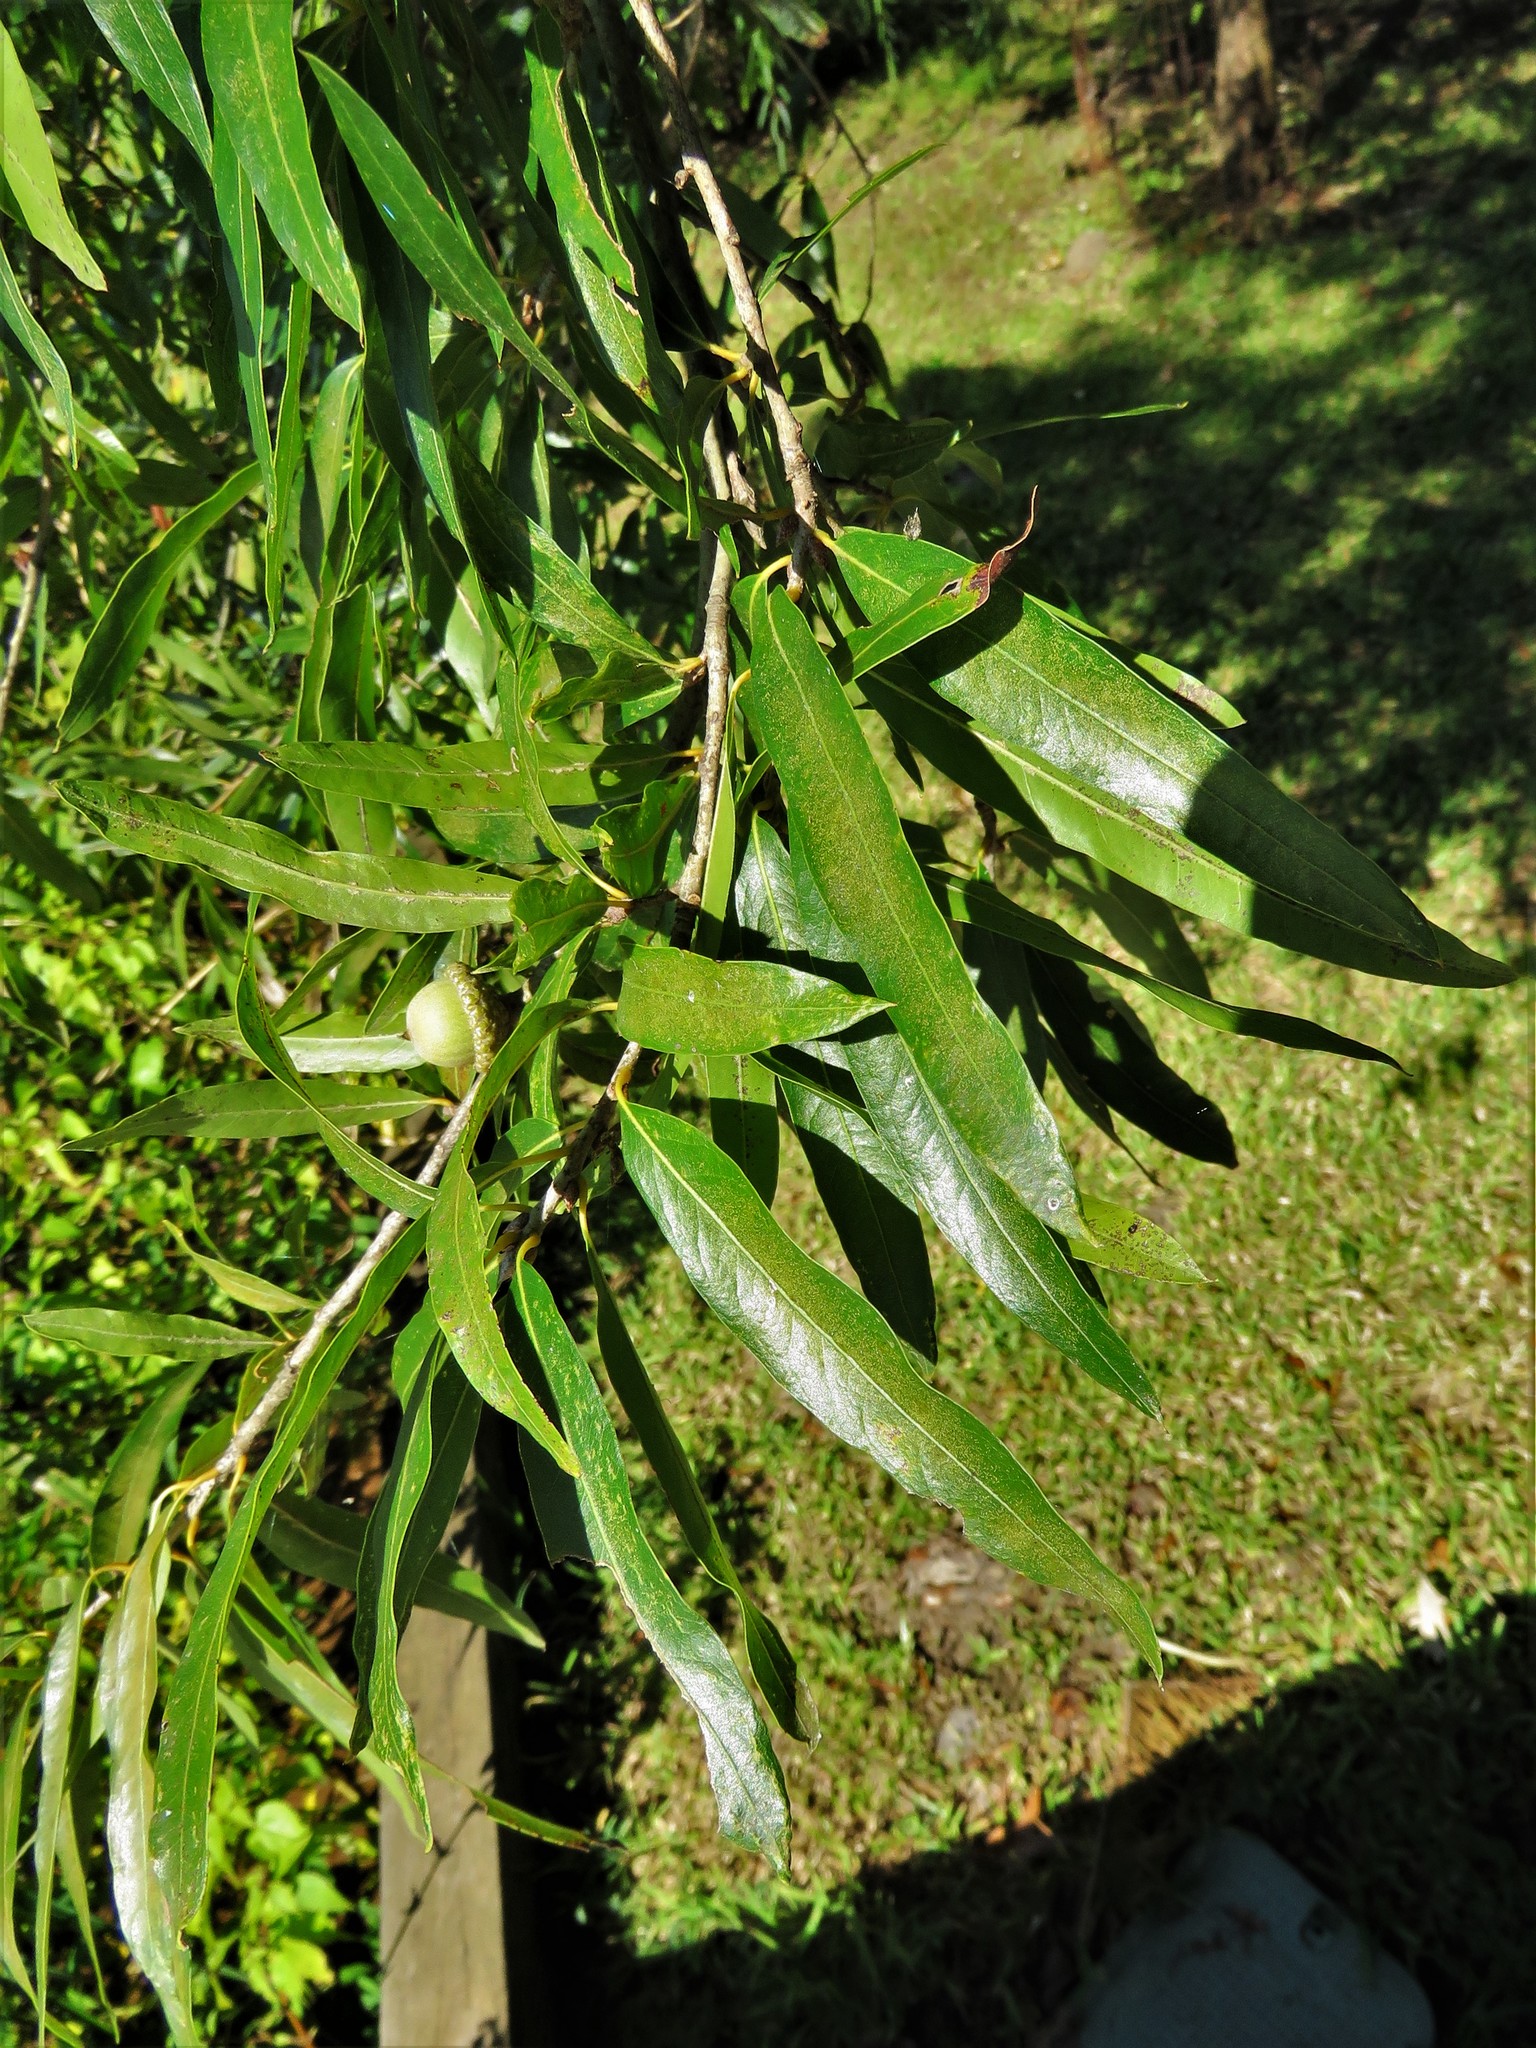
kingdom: Plantae
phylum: Tracheophyta
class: Magnoliopsida
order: Fagales
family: Fagaceae
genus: Quercus
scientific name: Quercus phellos
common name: Willow oak
